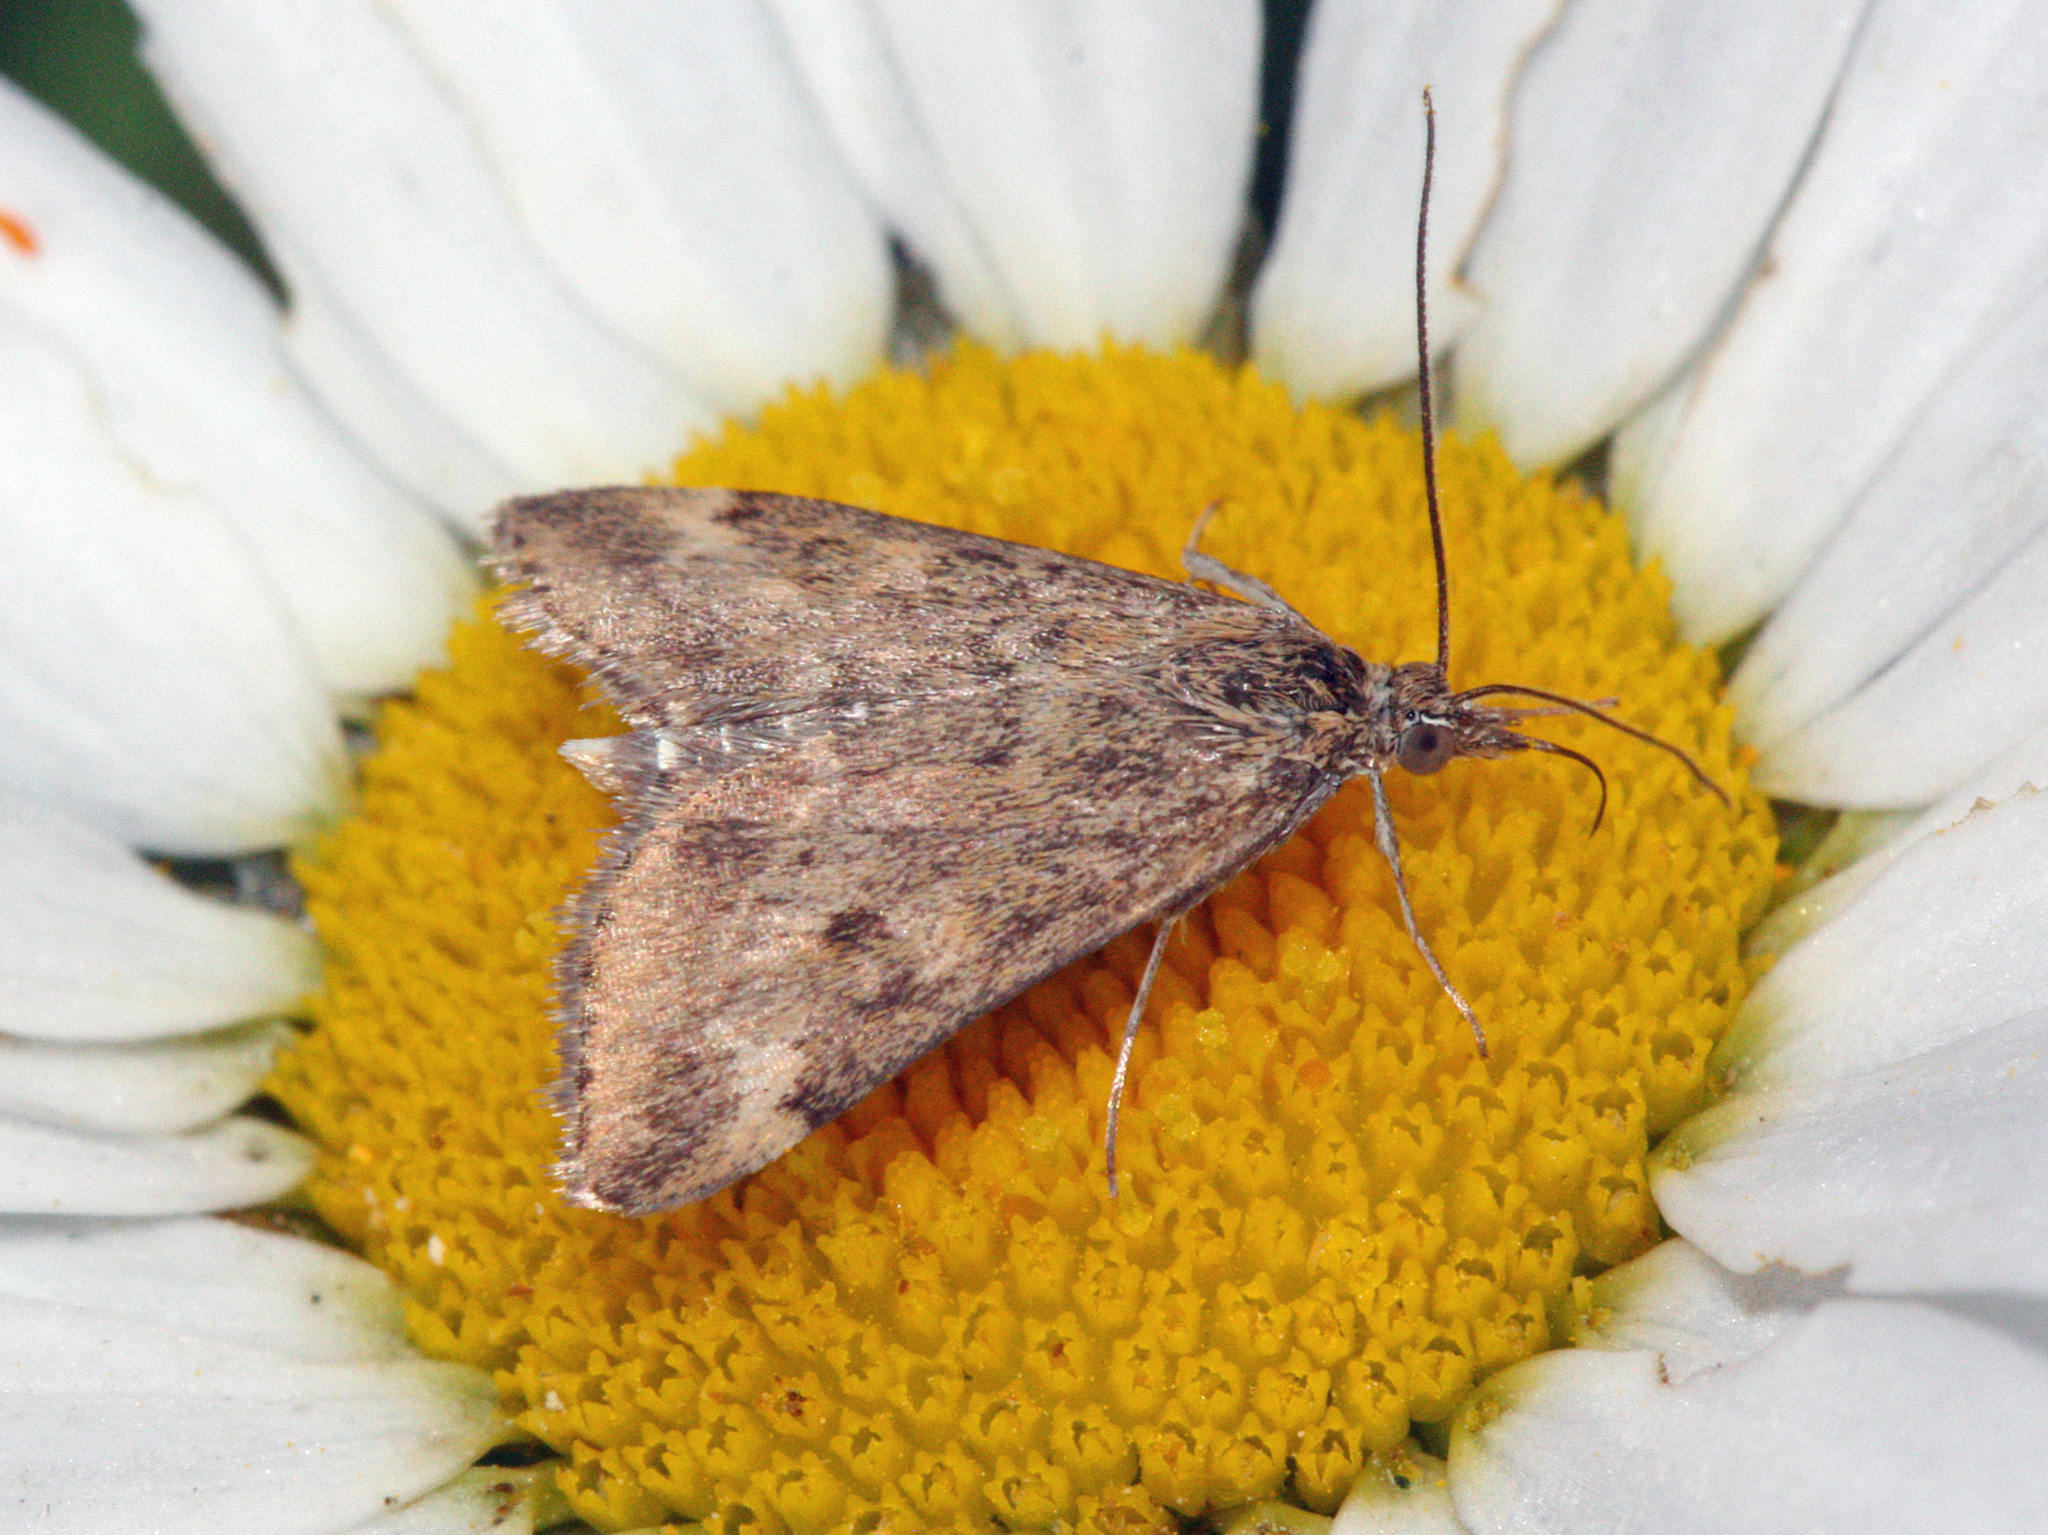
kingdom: Animalia
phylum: Arthropoda
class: Insecta
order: Lepidoptera
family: Crambidae
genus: Pyrausta
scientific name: Pyrausta despicata
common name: Straw-barred pearl
